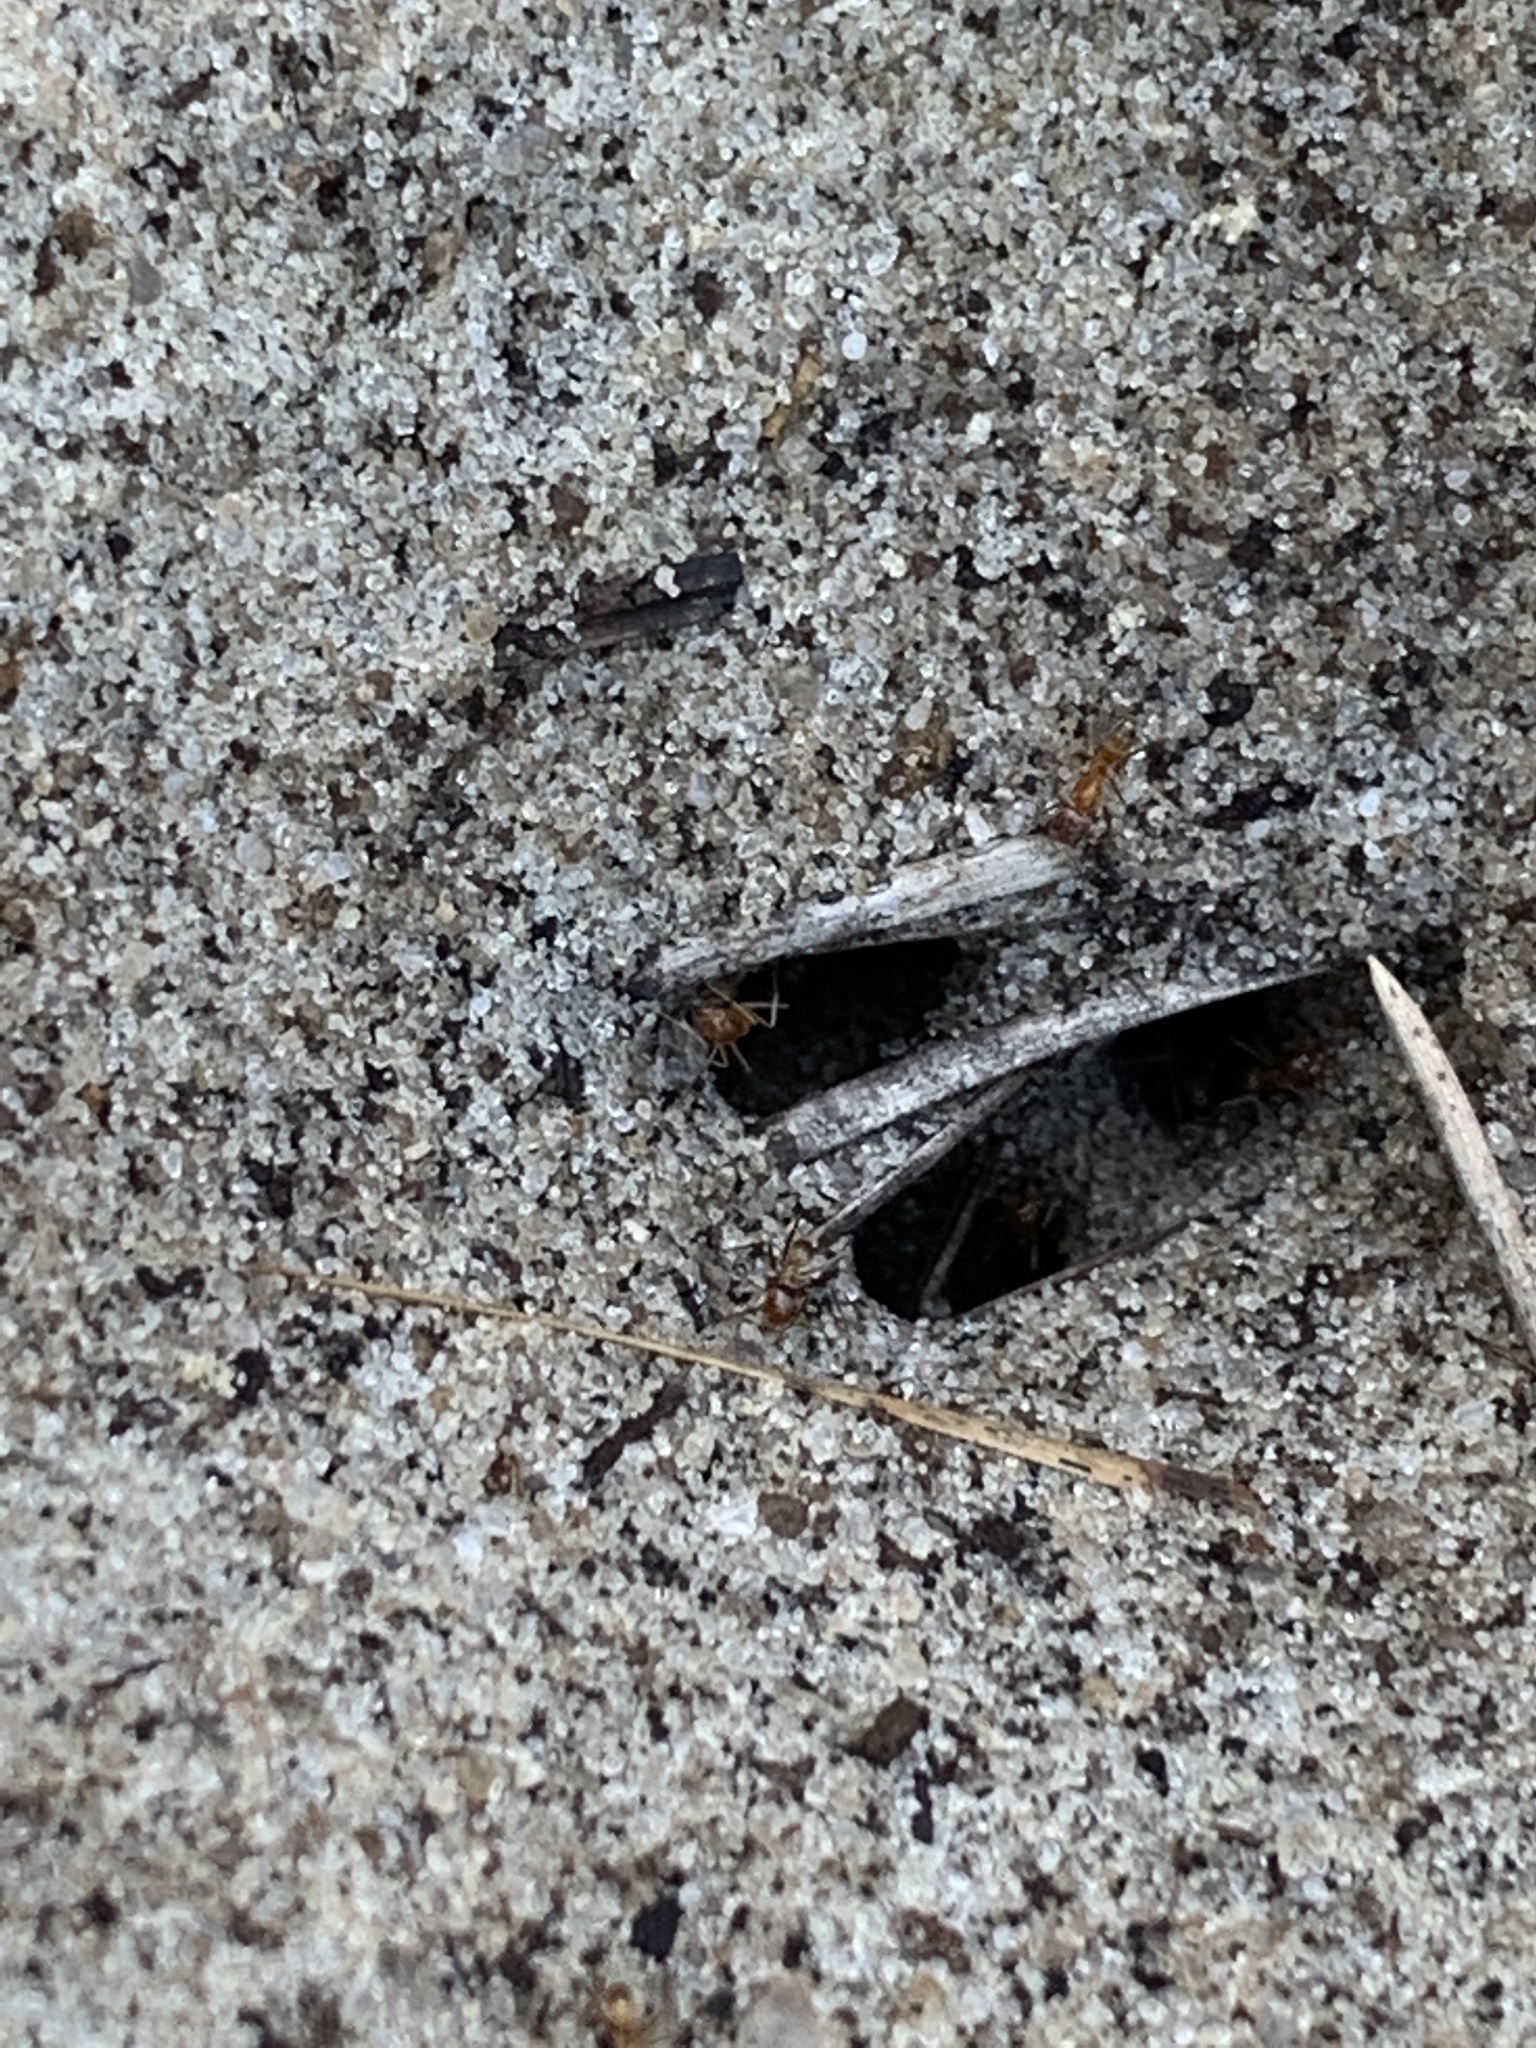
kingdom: Animalia
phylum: Arthropoda
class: Insecta
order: Hymenoptera
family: Formicidae
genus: Dorymyrmex
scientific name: Dorymyrmex bureni
